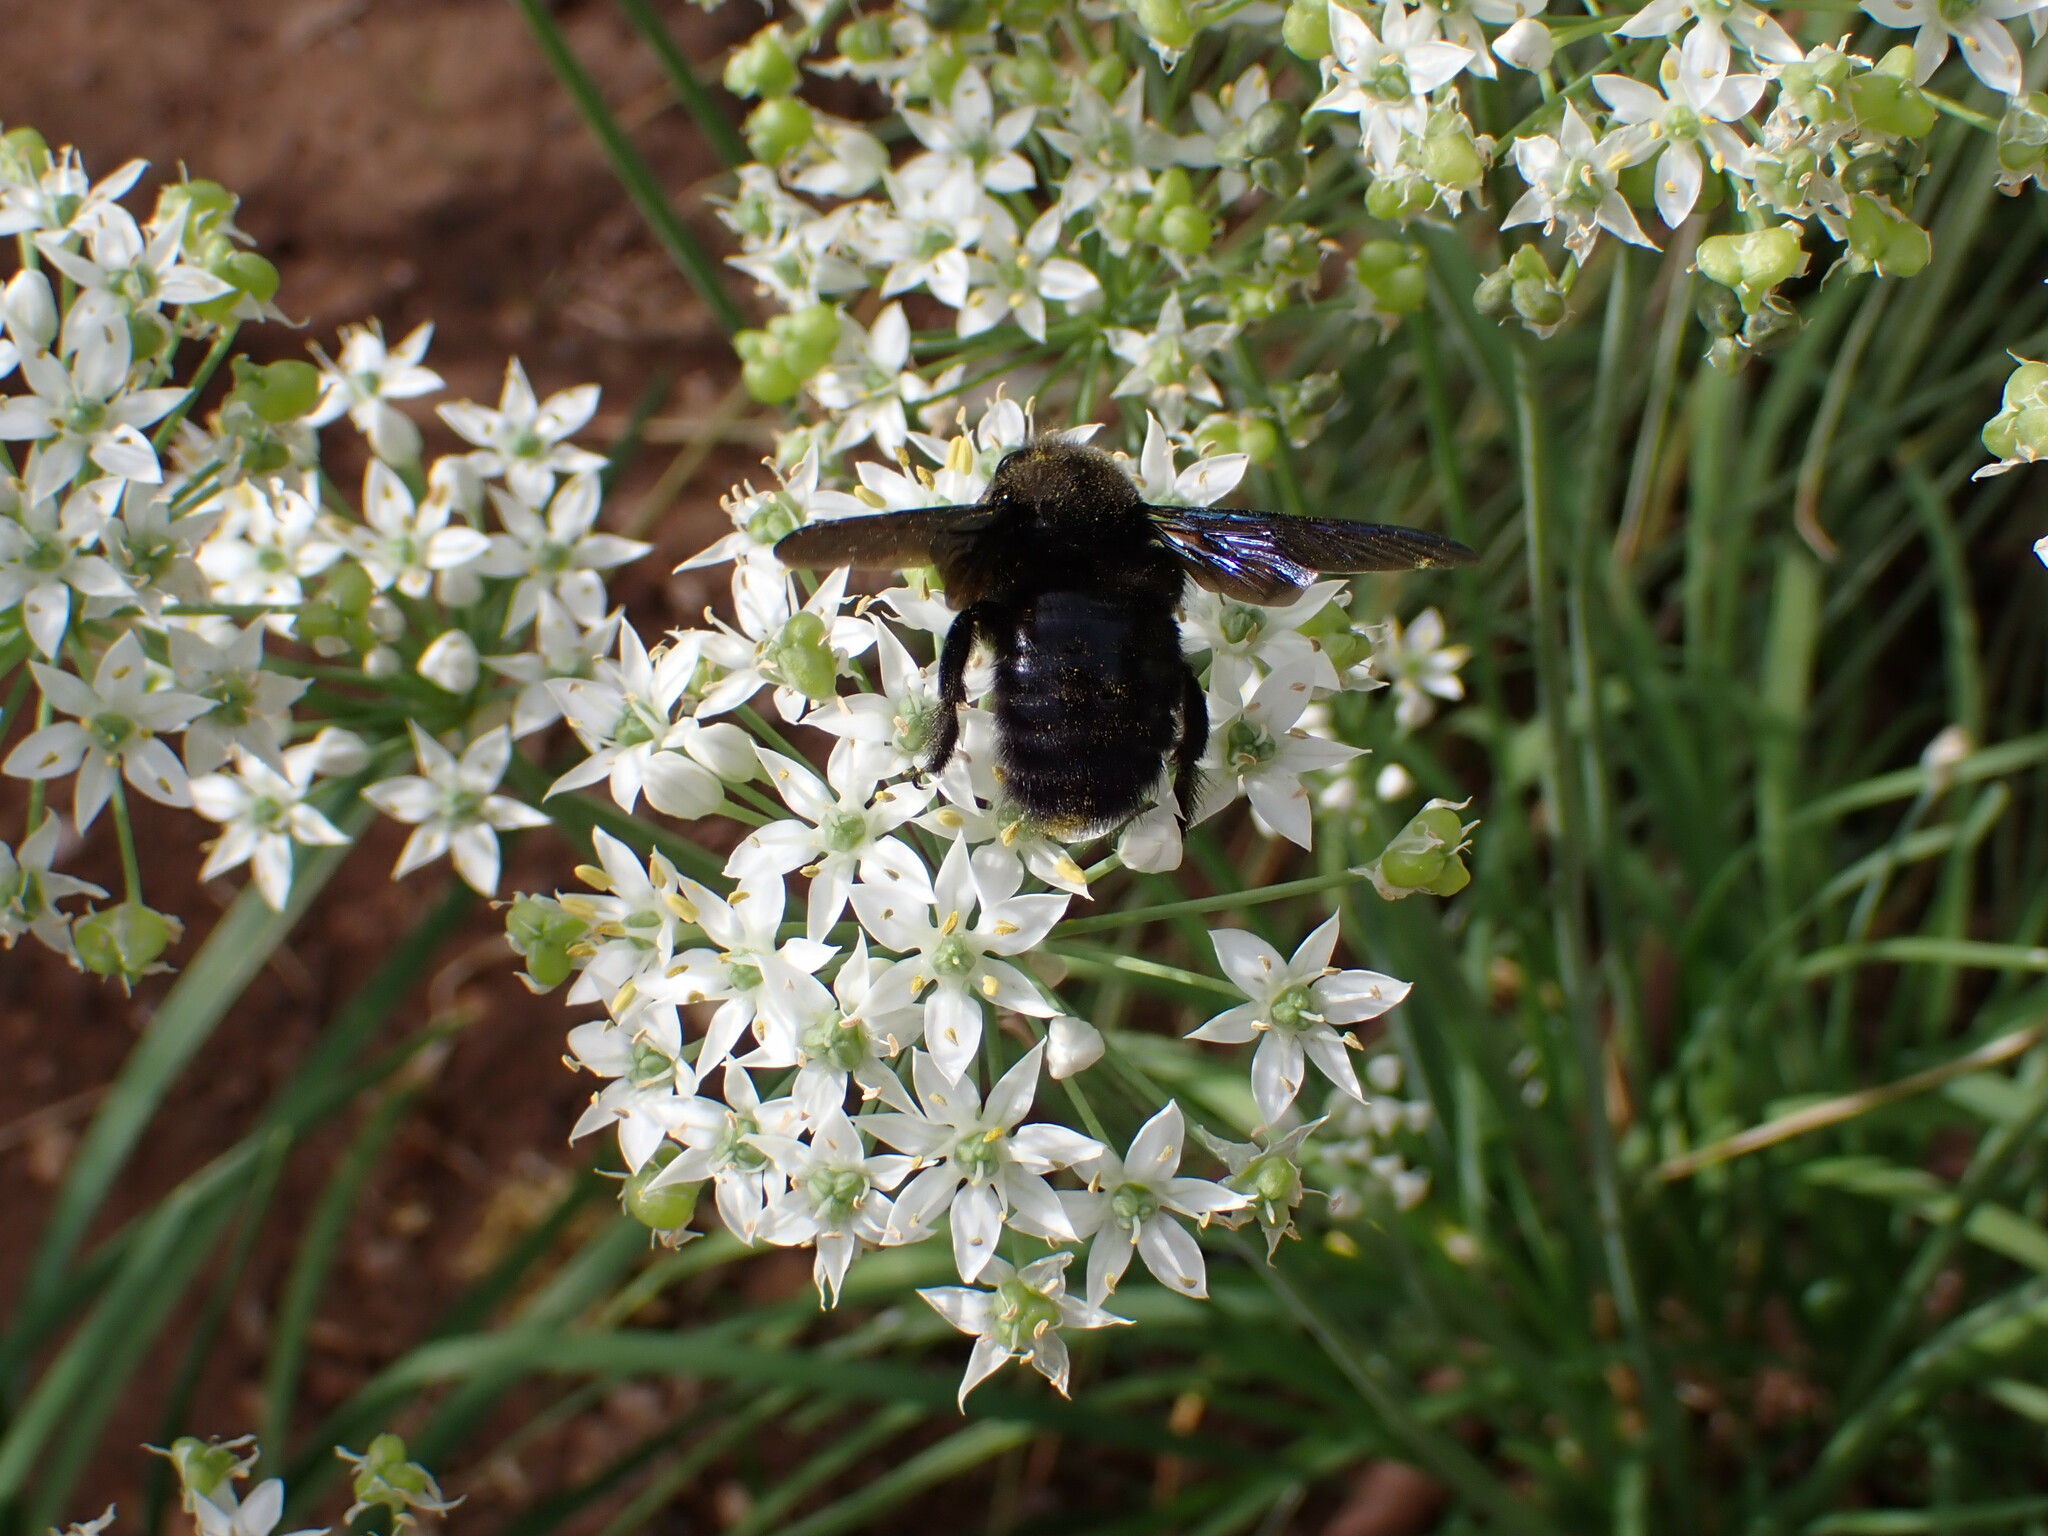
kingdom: Animalia
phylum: Arthropoda
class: Insecta
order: Hymenoptera
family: Apidae
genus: Xylocopa
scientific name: Xylocopa violacea
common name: Violet carpenter bee
